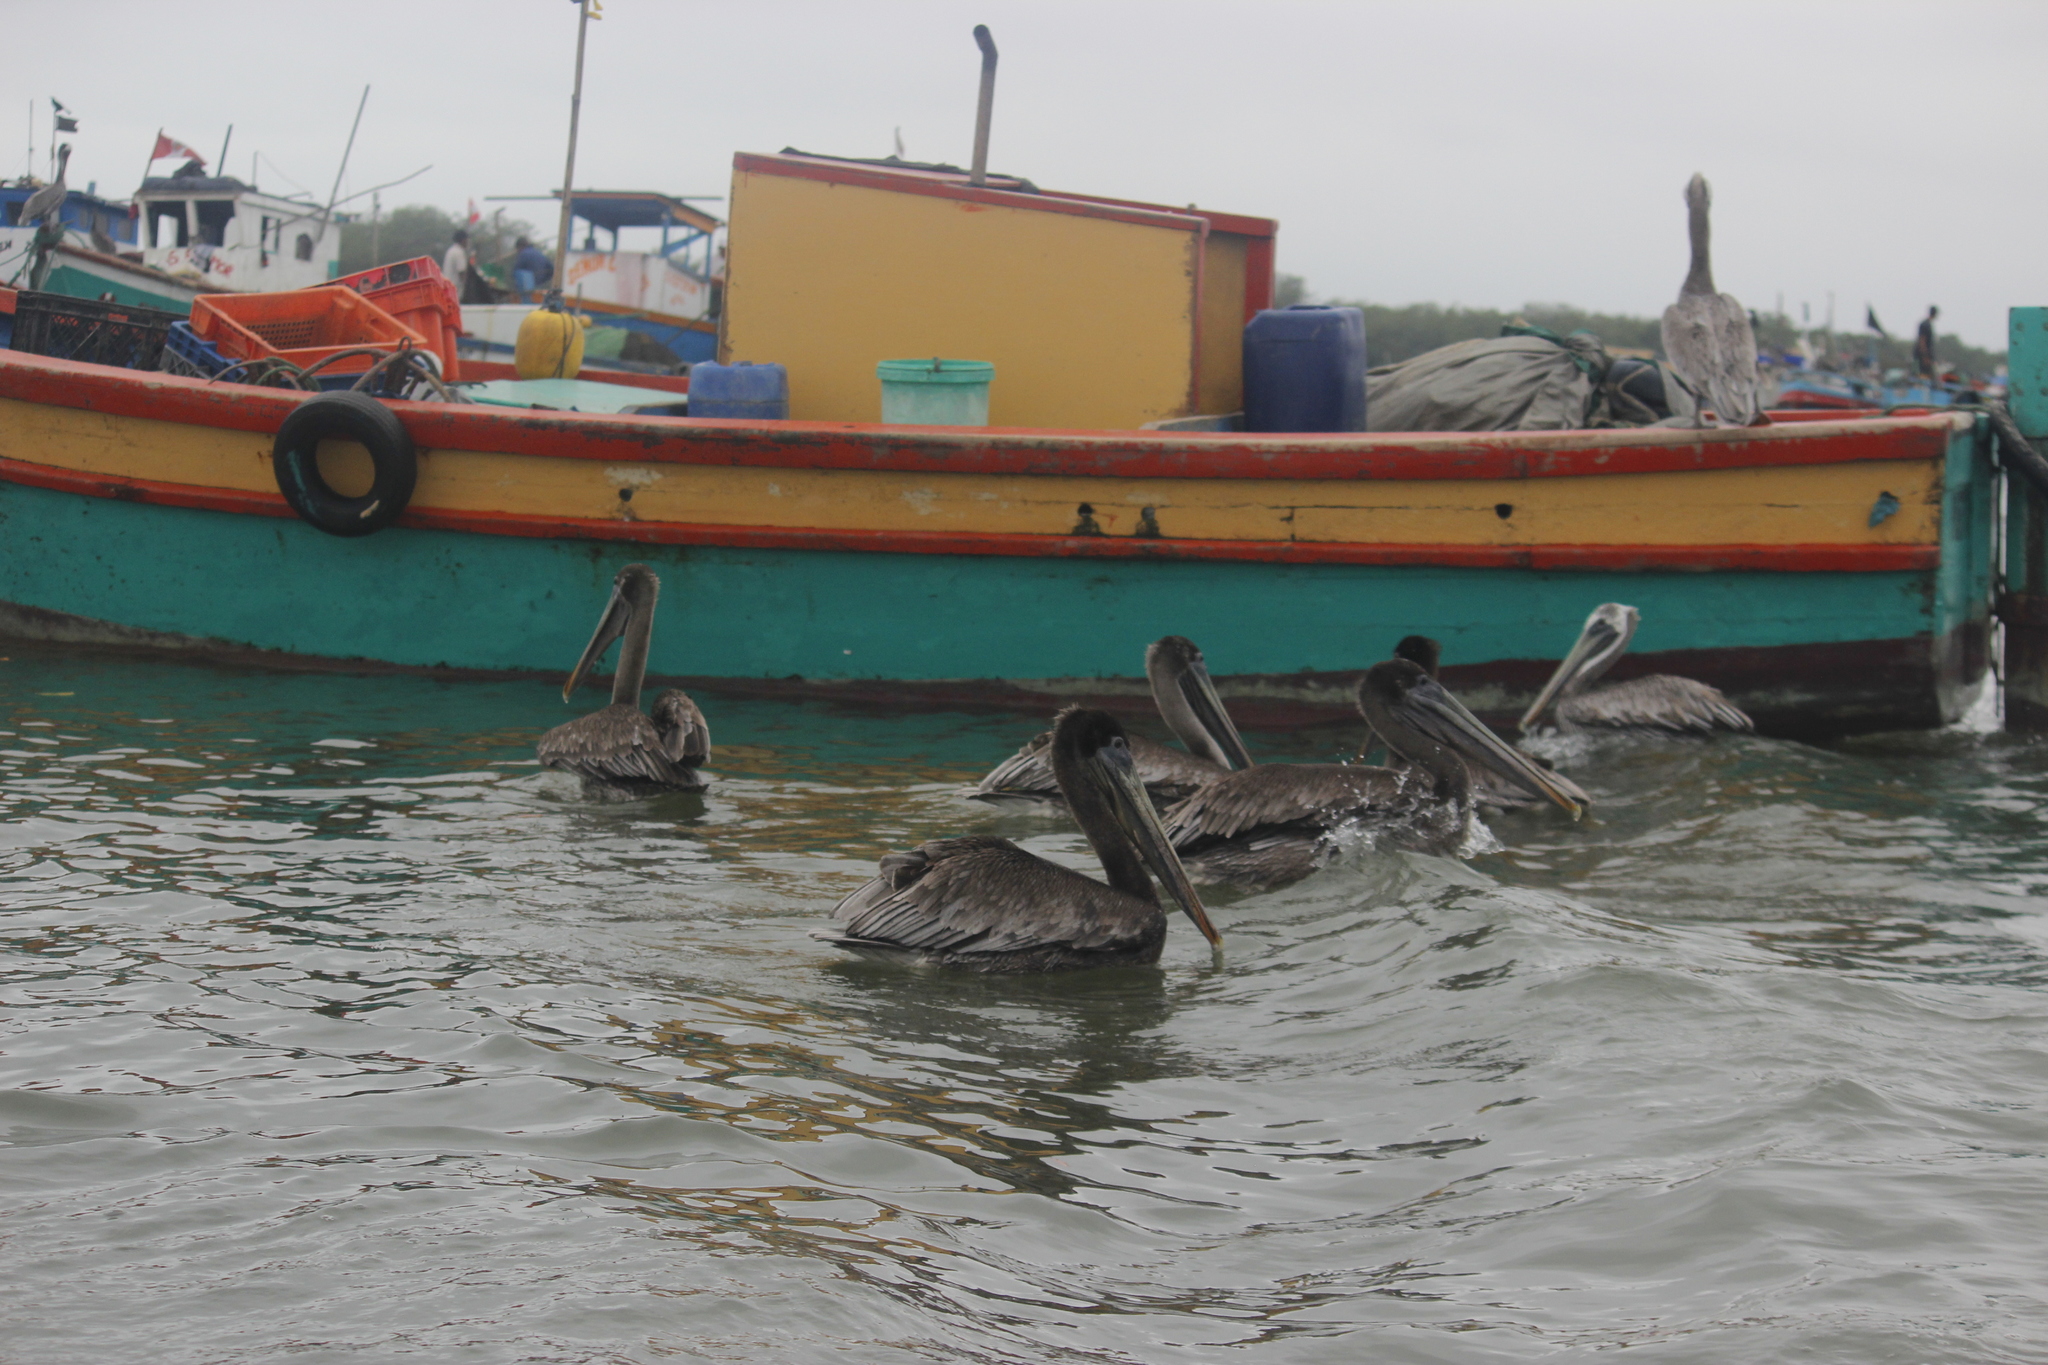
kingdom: Animalia
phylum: Chordata
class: Aves
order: Pelecaniformes
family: Pelecanidae
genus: Pelecanus
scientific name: Pelecanus thagus
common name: Peruvian pelican
